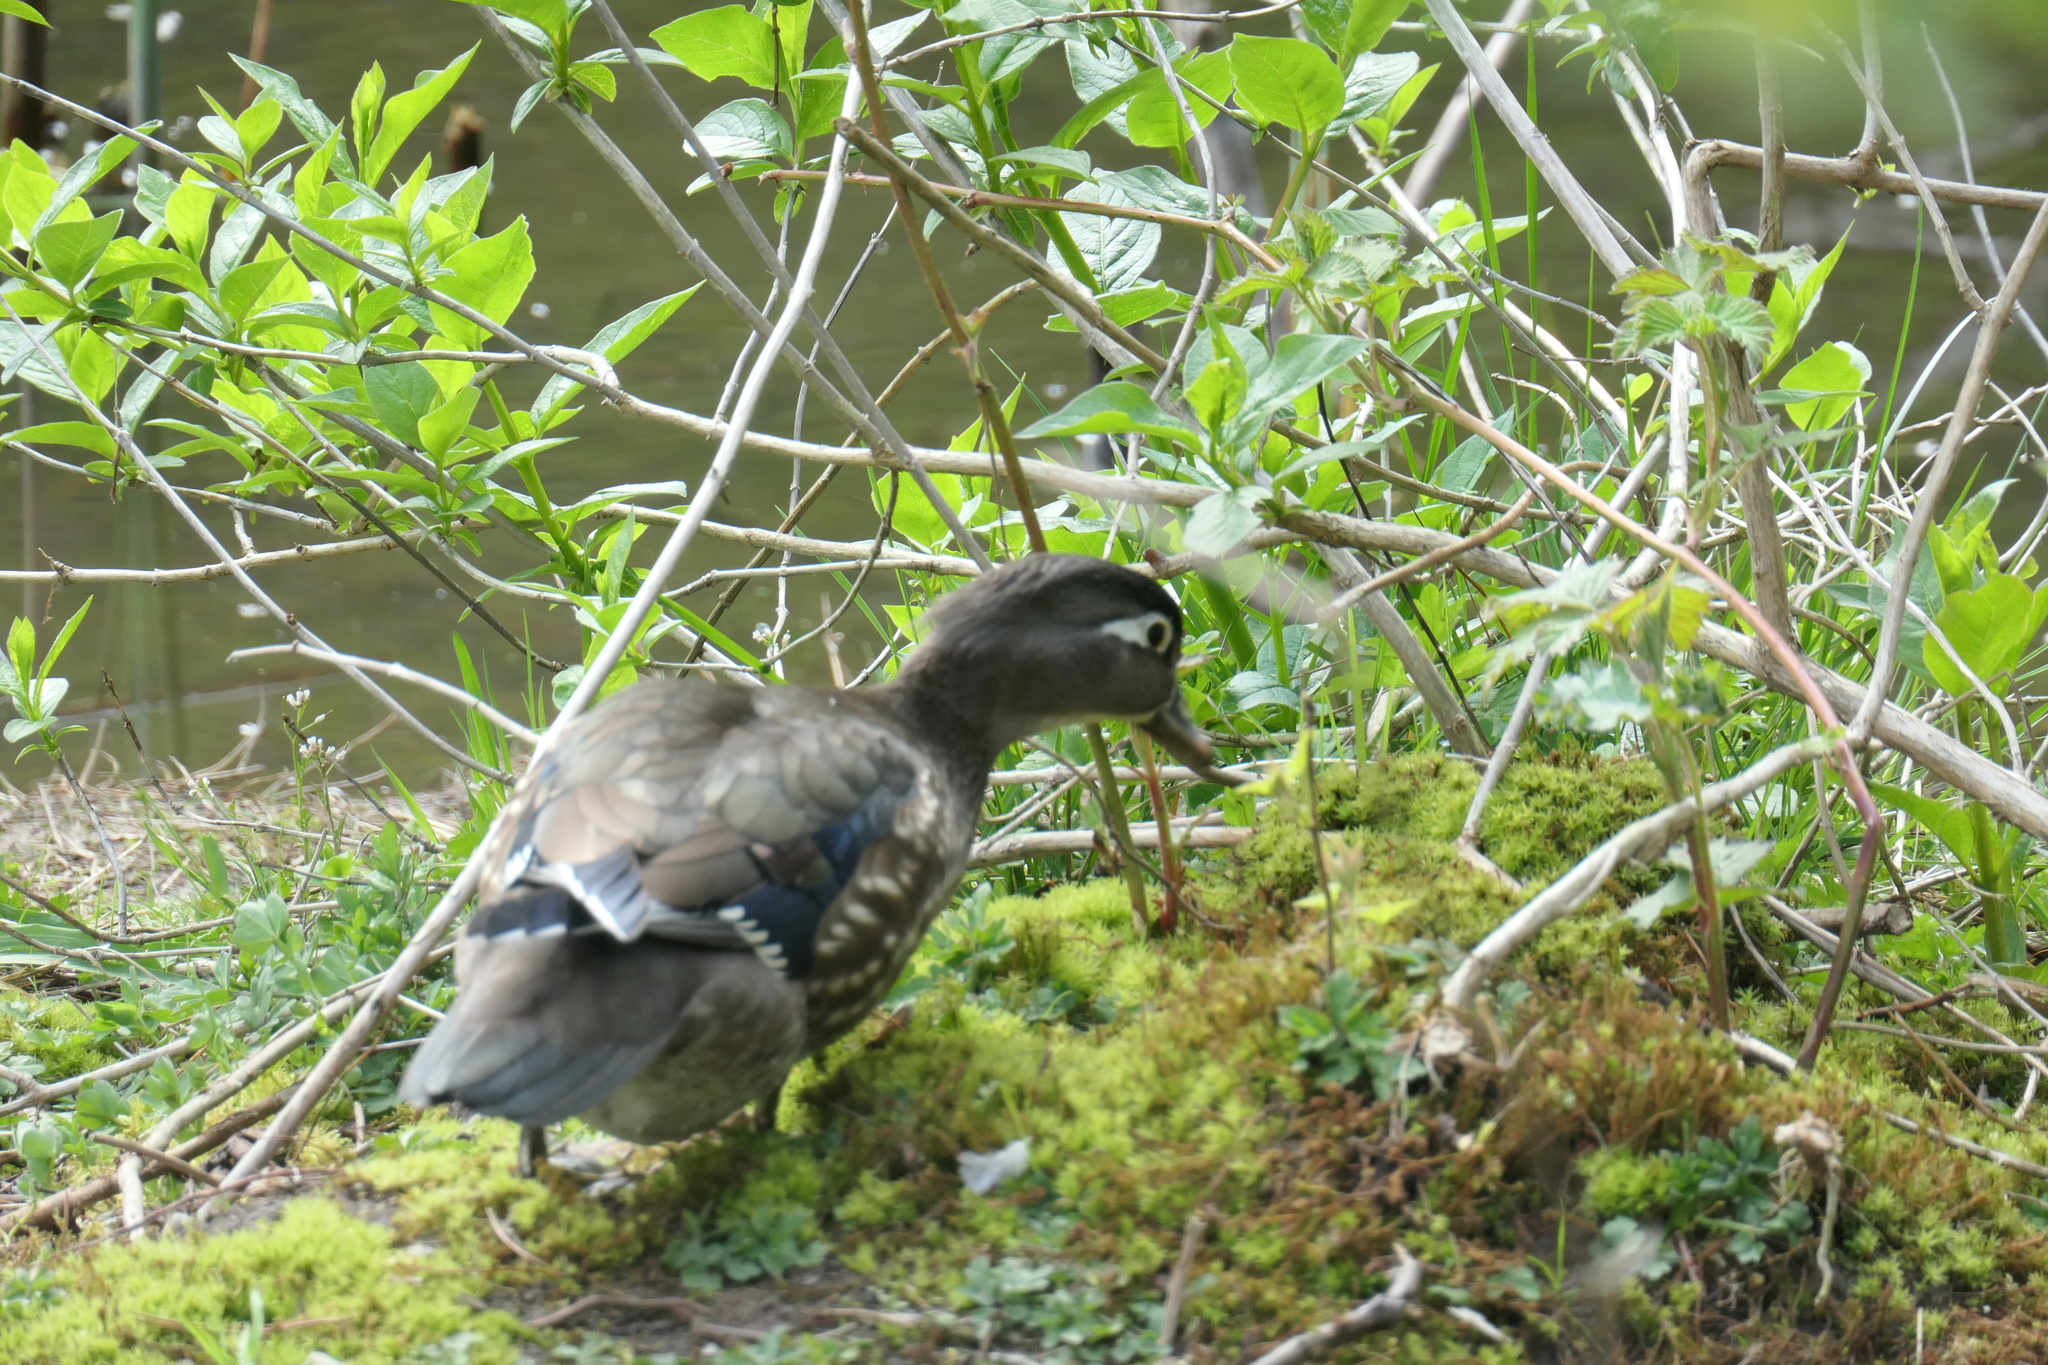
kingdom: Animalia
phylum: Chordata
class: Aves
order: Anseriformes
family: Anatidae
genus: Aix
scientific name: Aix sponsa
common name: Wood duck
